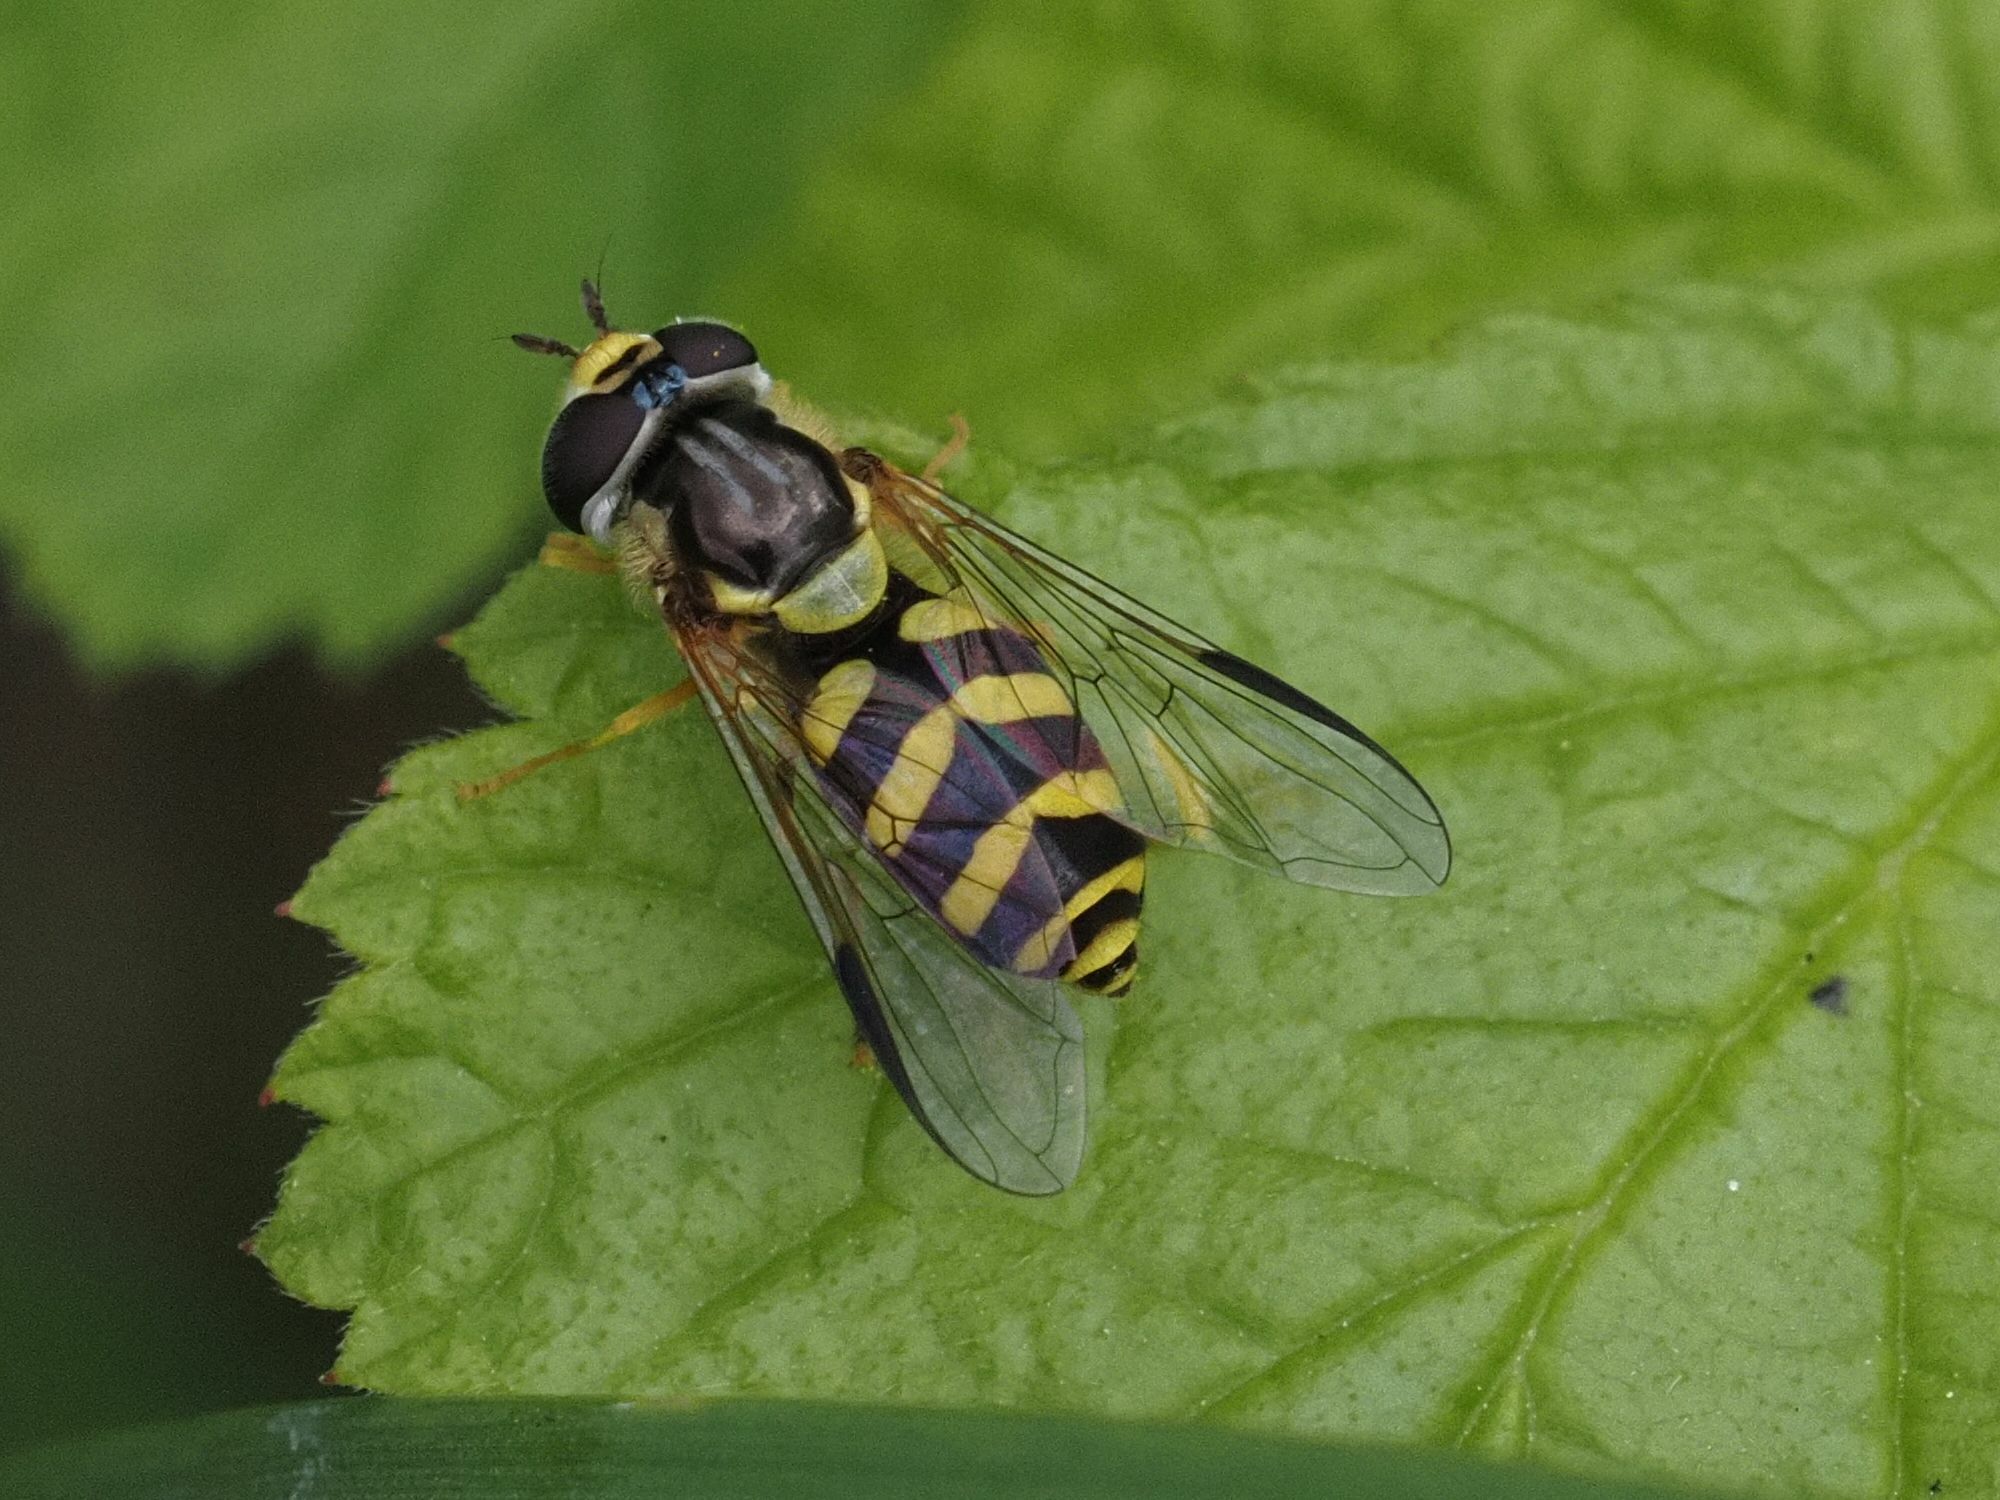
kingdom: Animalia
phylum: Arthropoda
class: Insecta
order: Diptera
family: Syrphidae
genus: Dasysyrphus
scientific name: Dasysyrphus albostriatus
